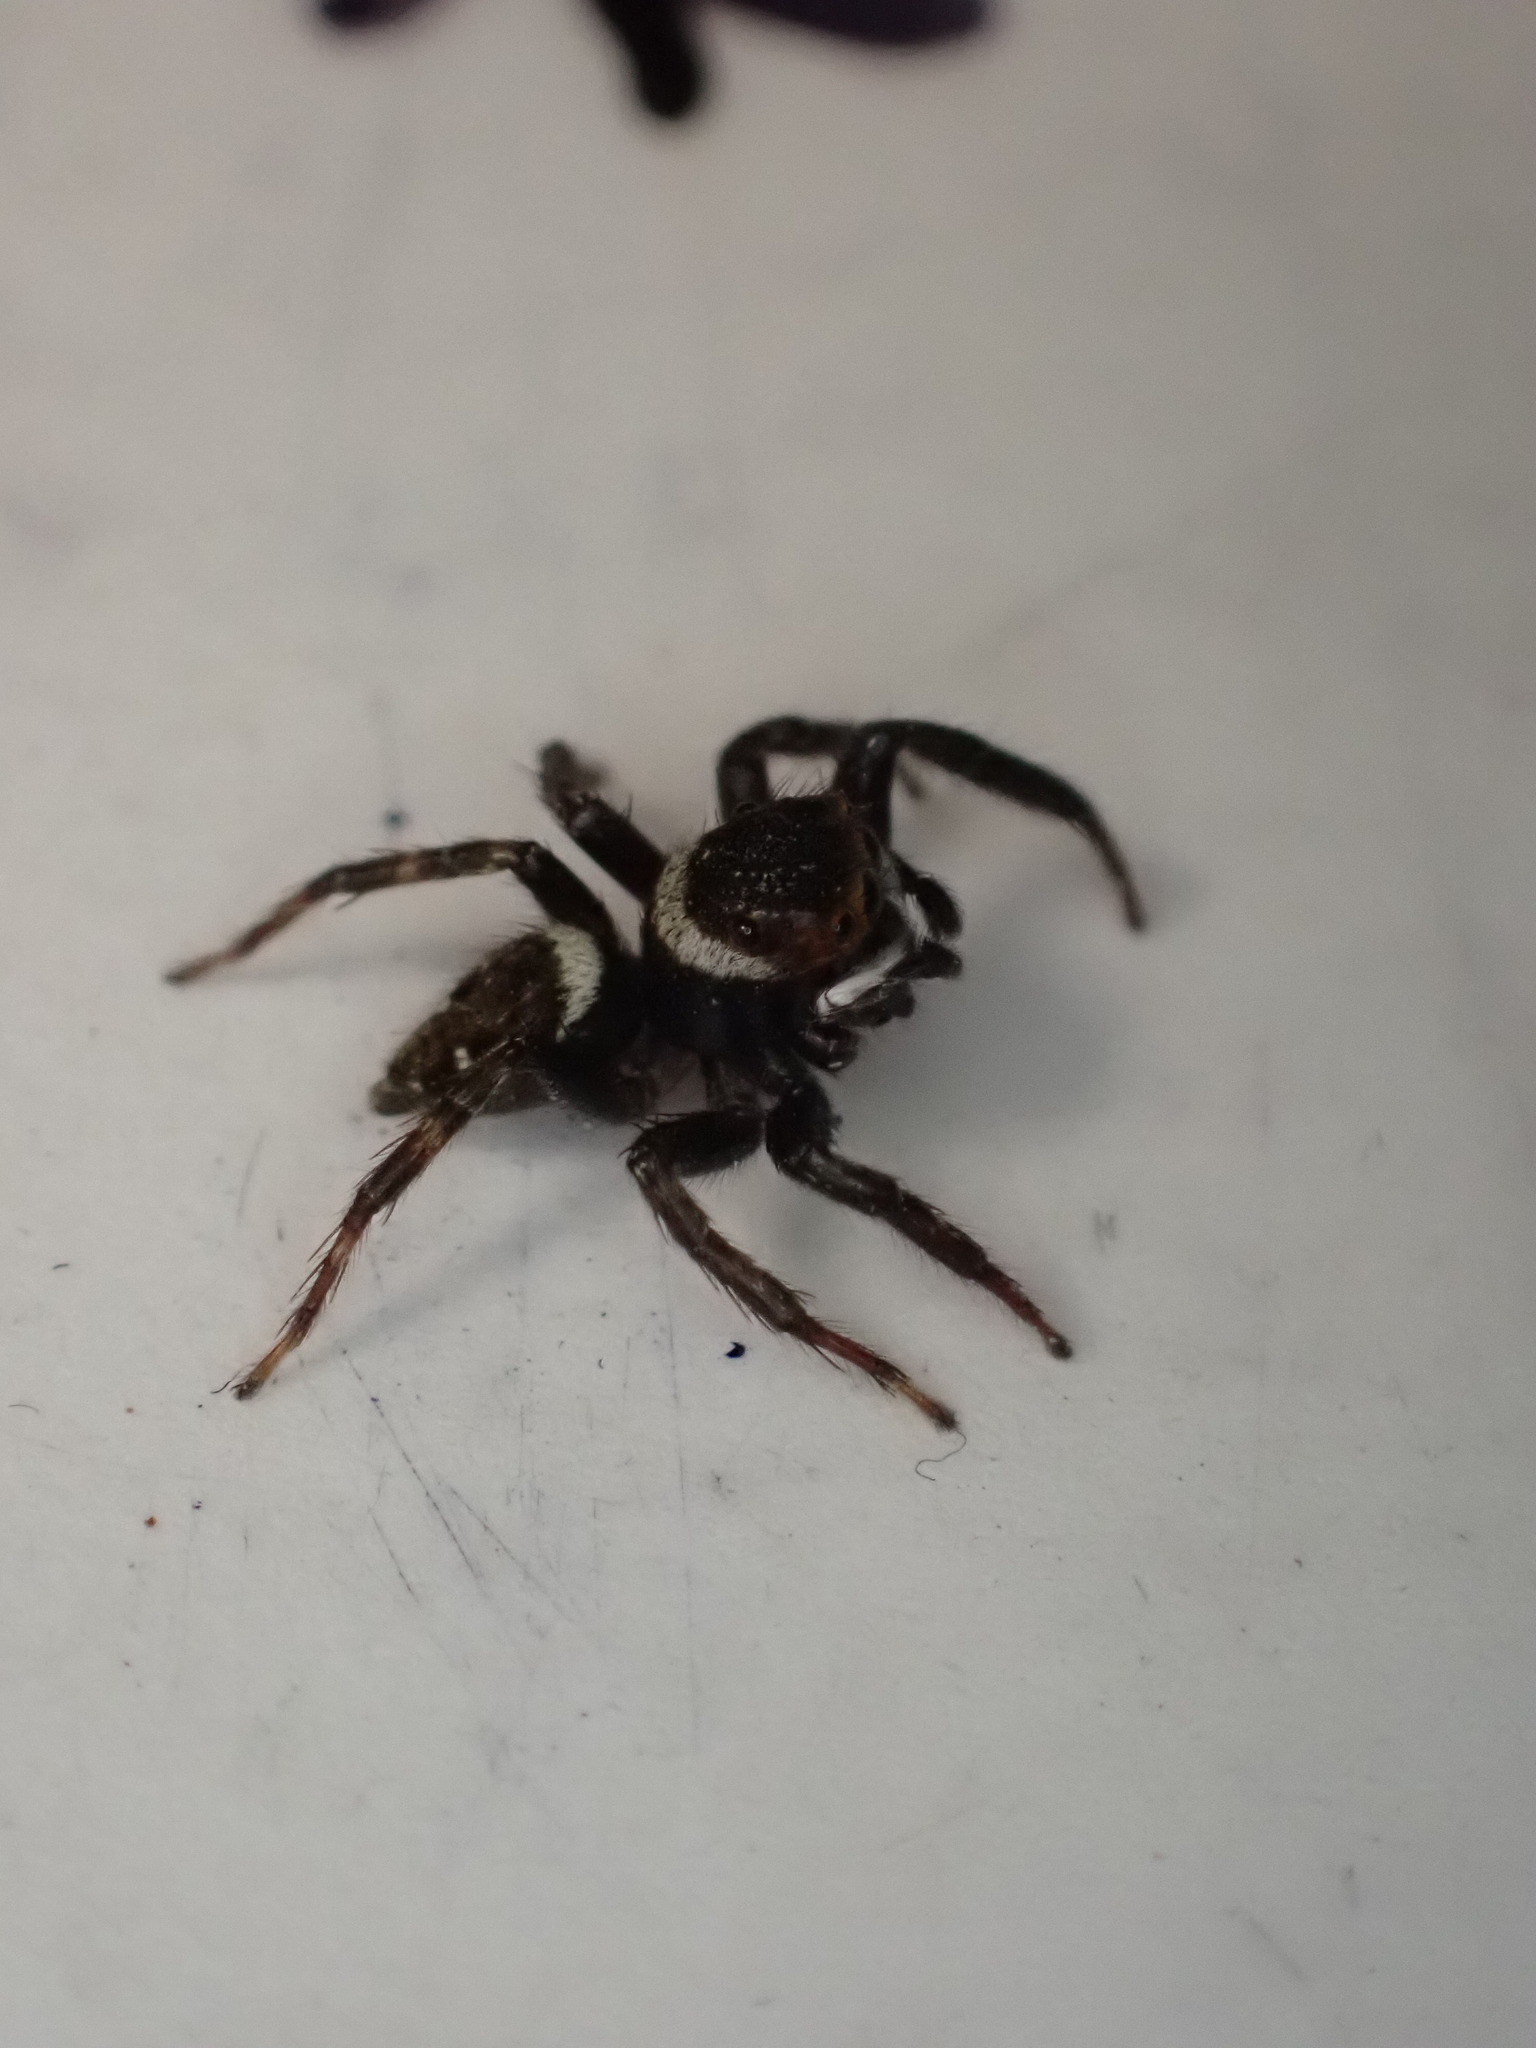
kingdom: Animalia
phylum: Arthropoda
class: Arachnida
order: Araneae
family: Salticidae
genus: Hasarius
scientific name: Hasarius adansoni
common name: Jumping spider
